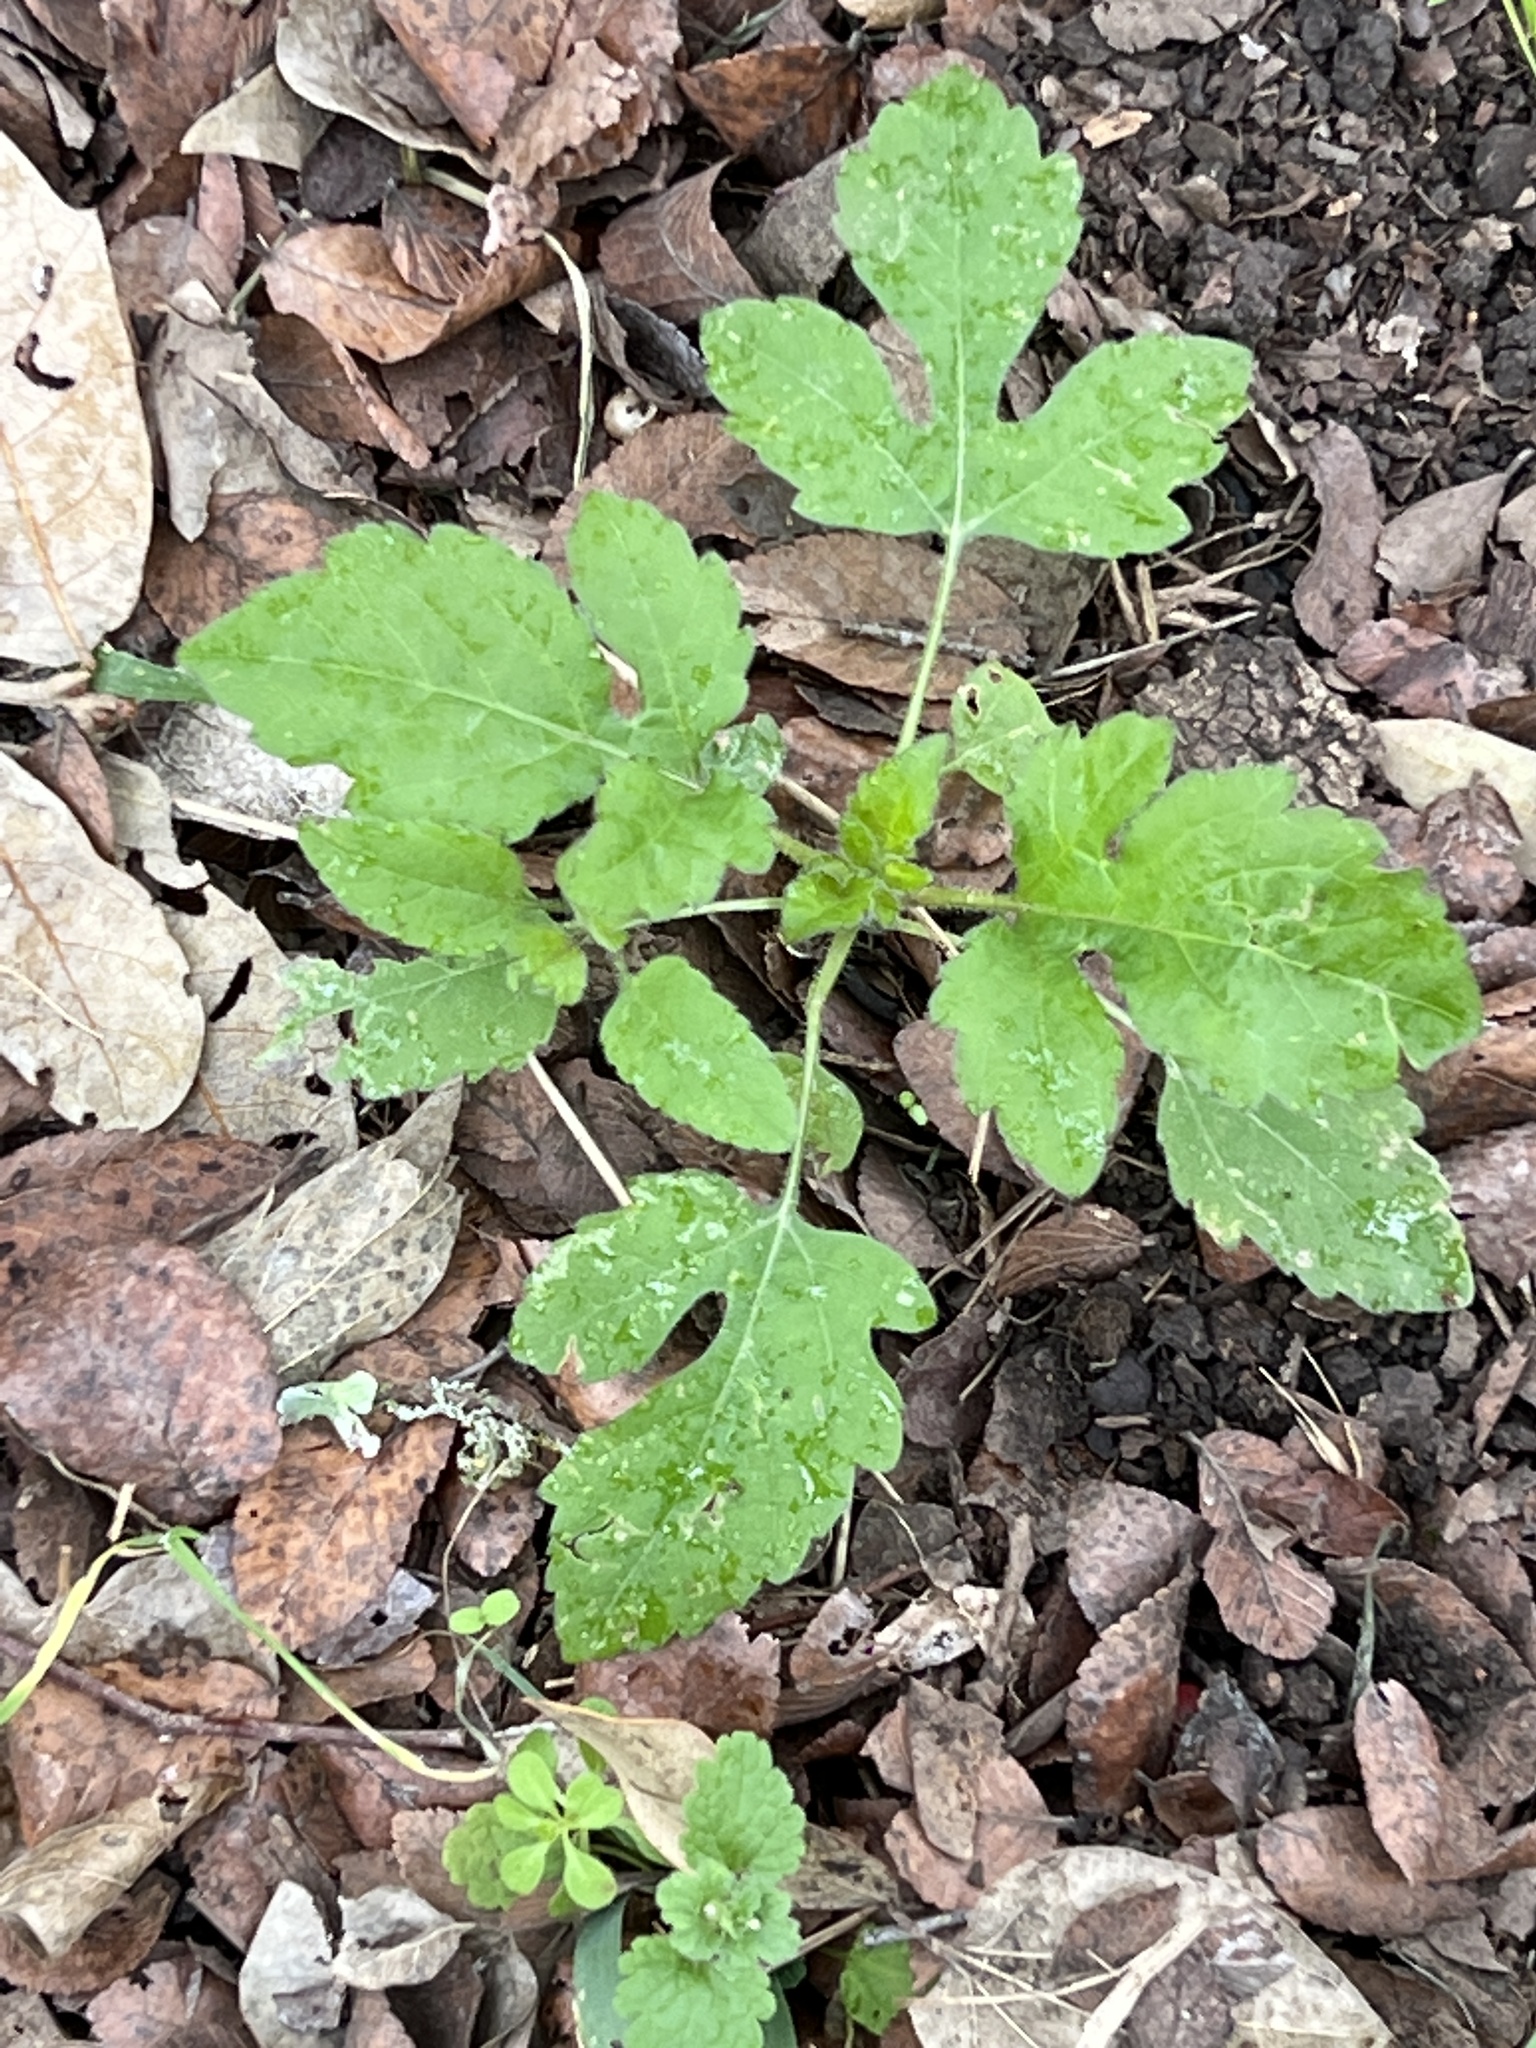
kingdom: Plantae
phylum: Tracheophyta
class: Magnoliopsida
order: Asterales
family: Asteraceae
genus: Ambrosia
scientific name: Ambrosia trifida
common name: Giant ragweed
